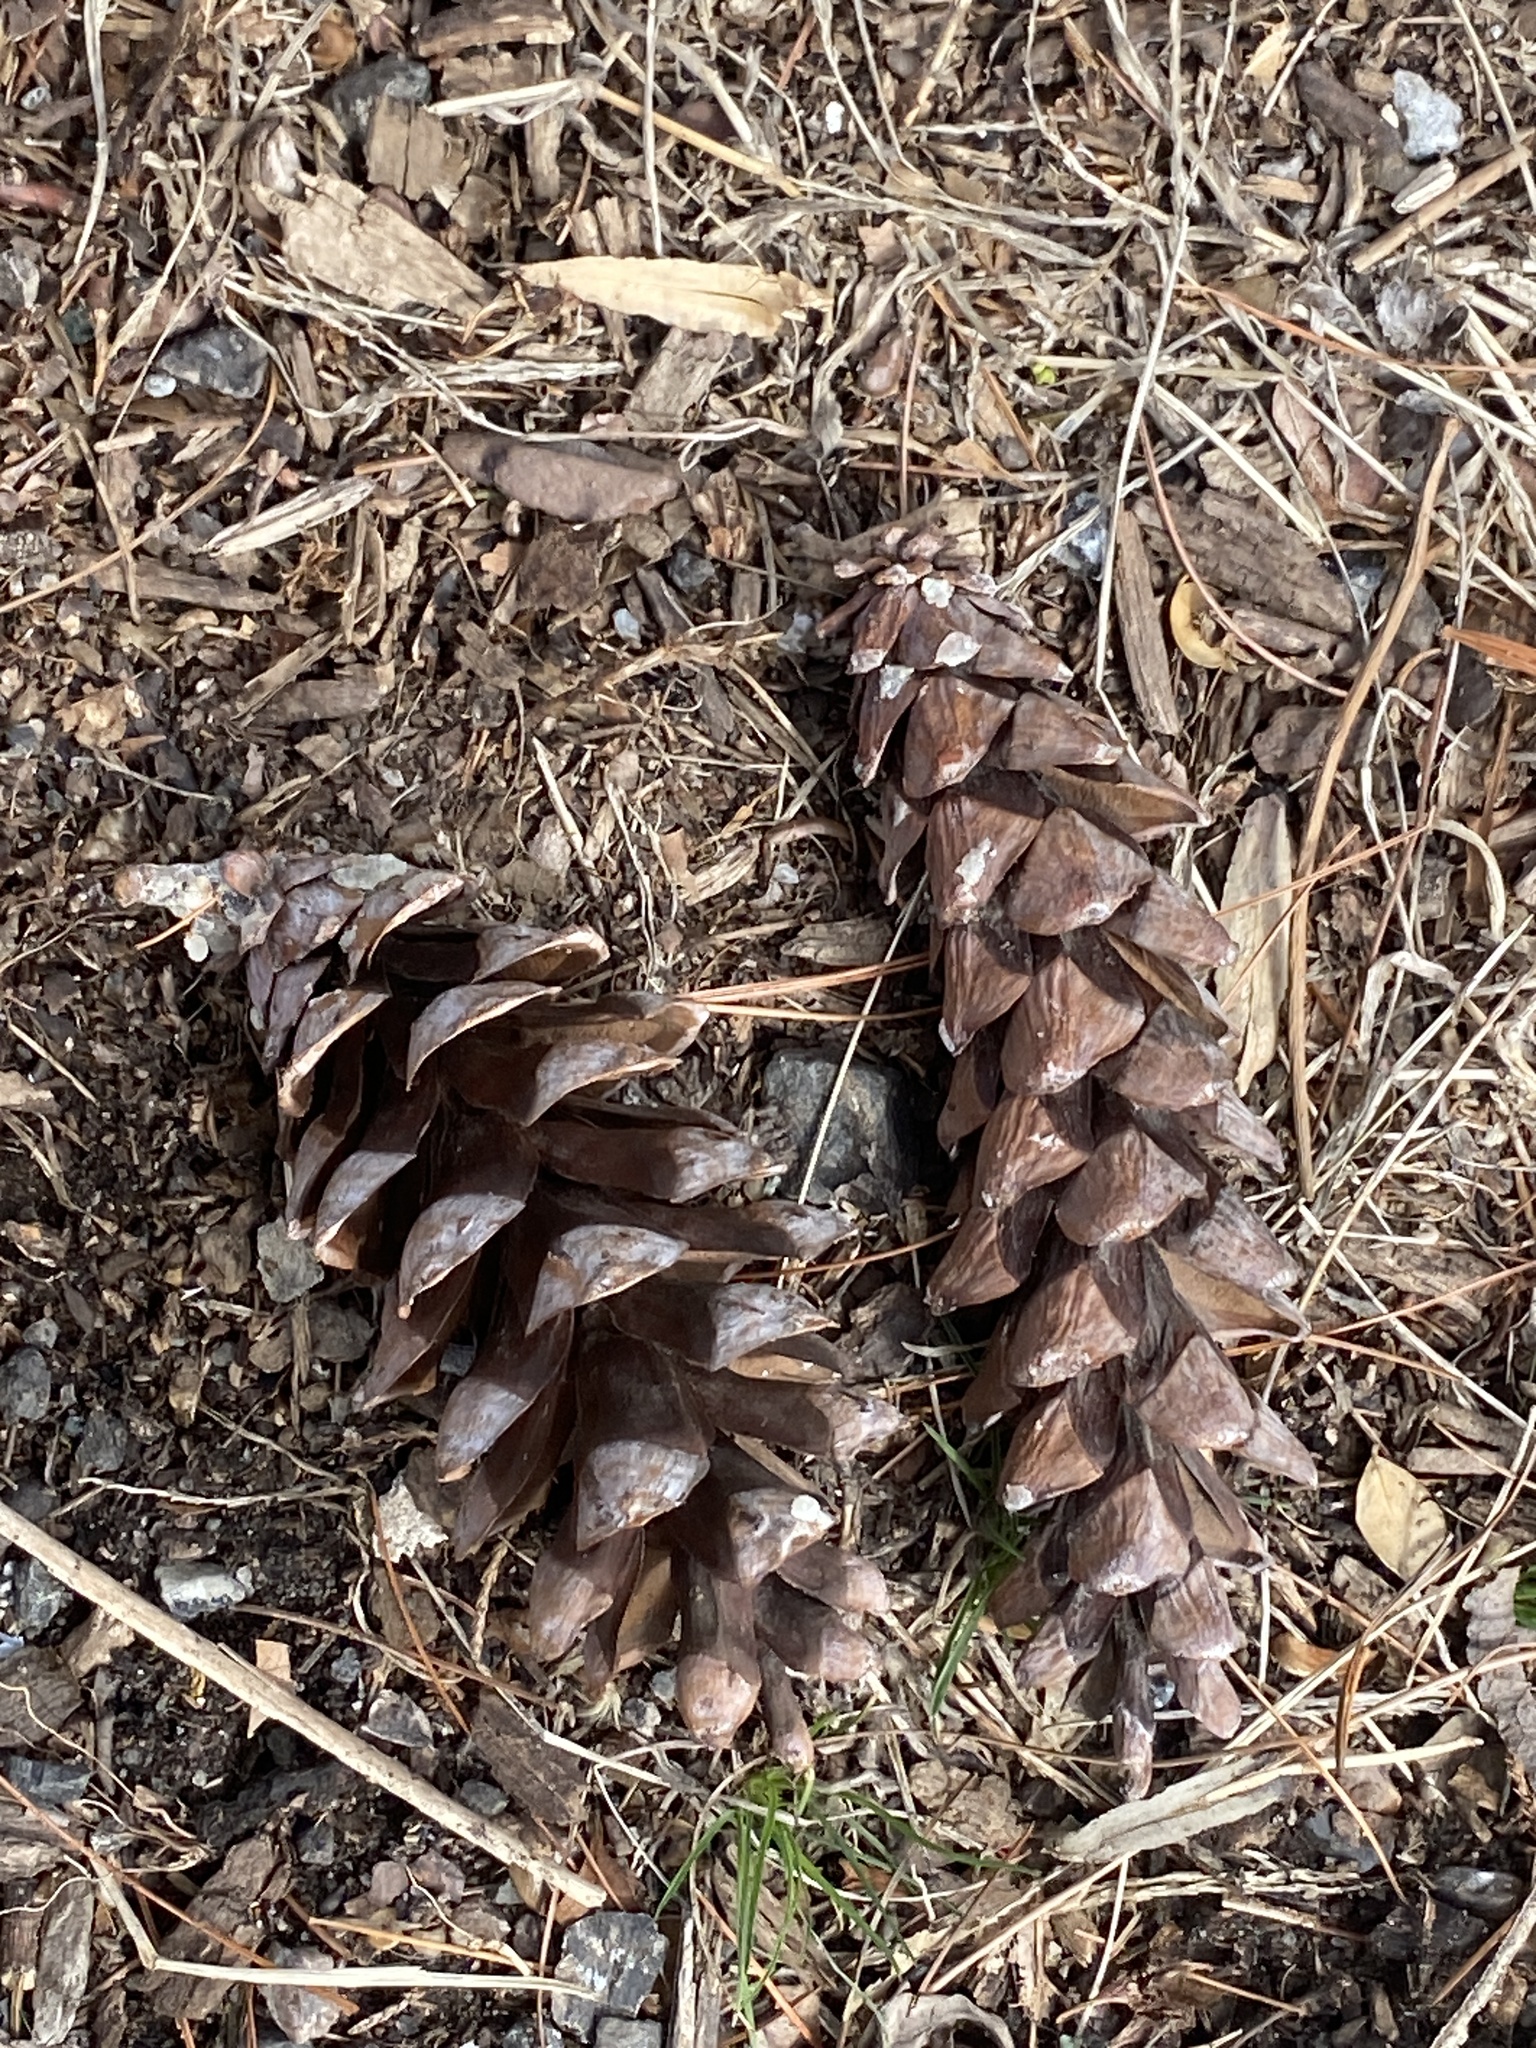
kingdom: Plantae
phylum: Tracheophyta
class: Pinopsida
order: Pinales
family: Pinaceae
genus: Pinus
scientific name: Pinus strobus
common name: Weymouth pine
